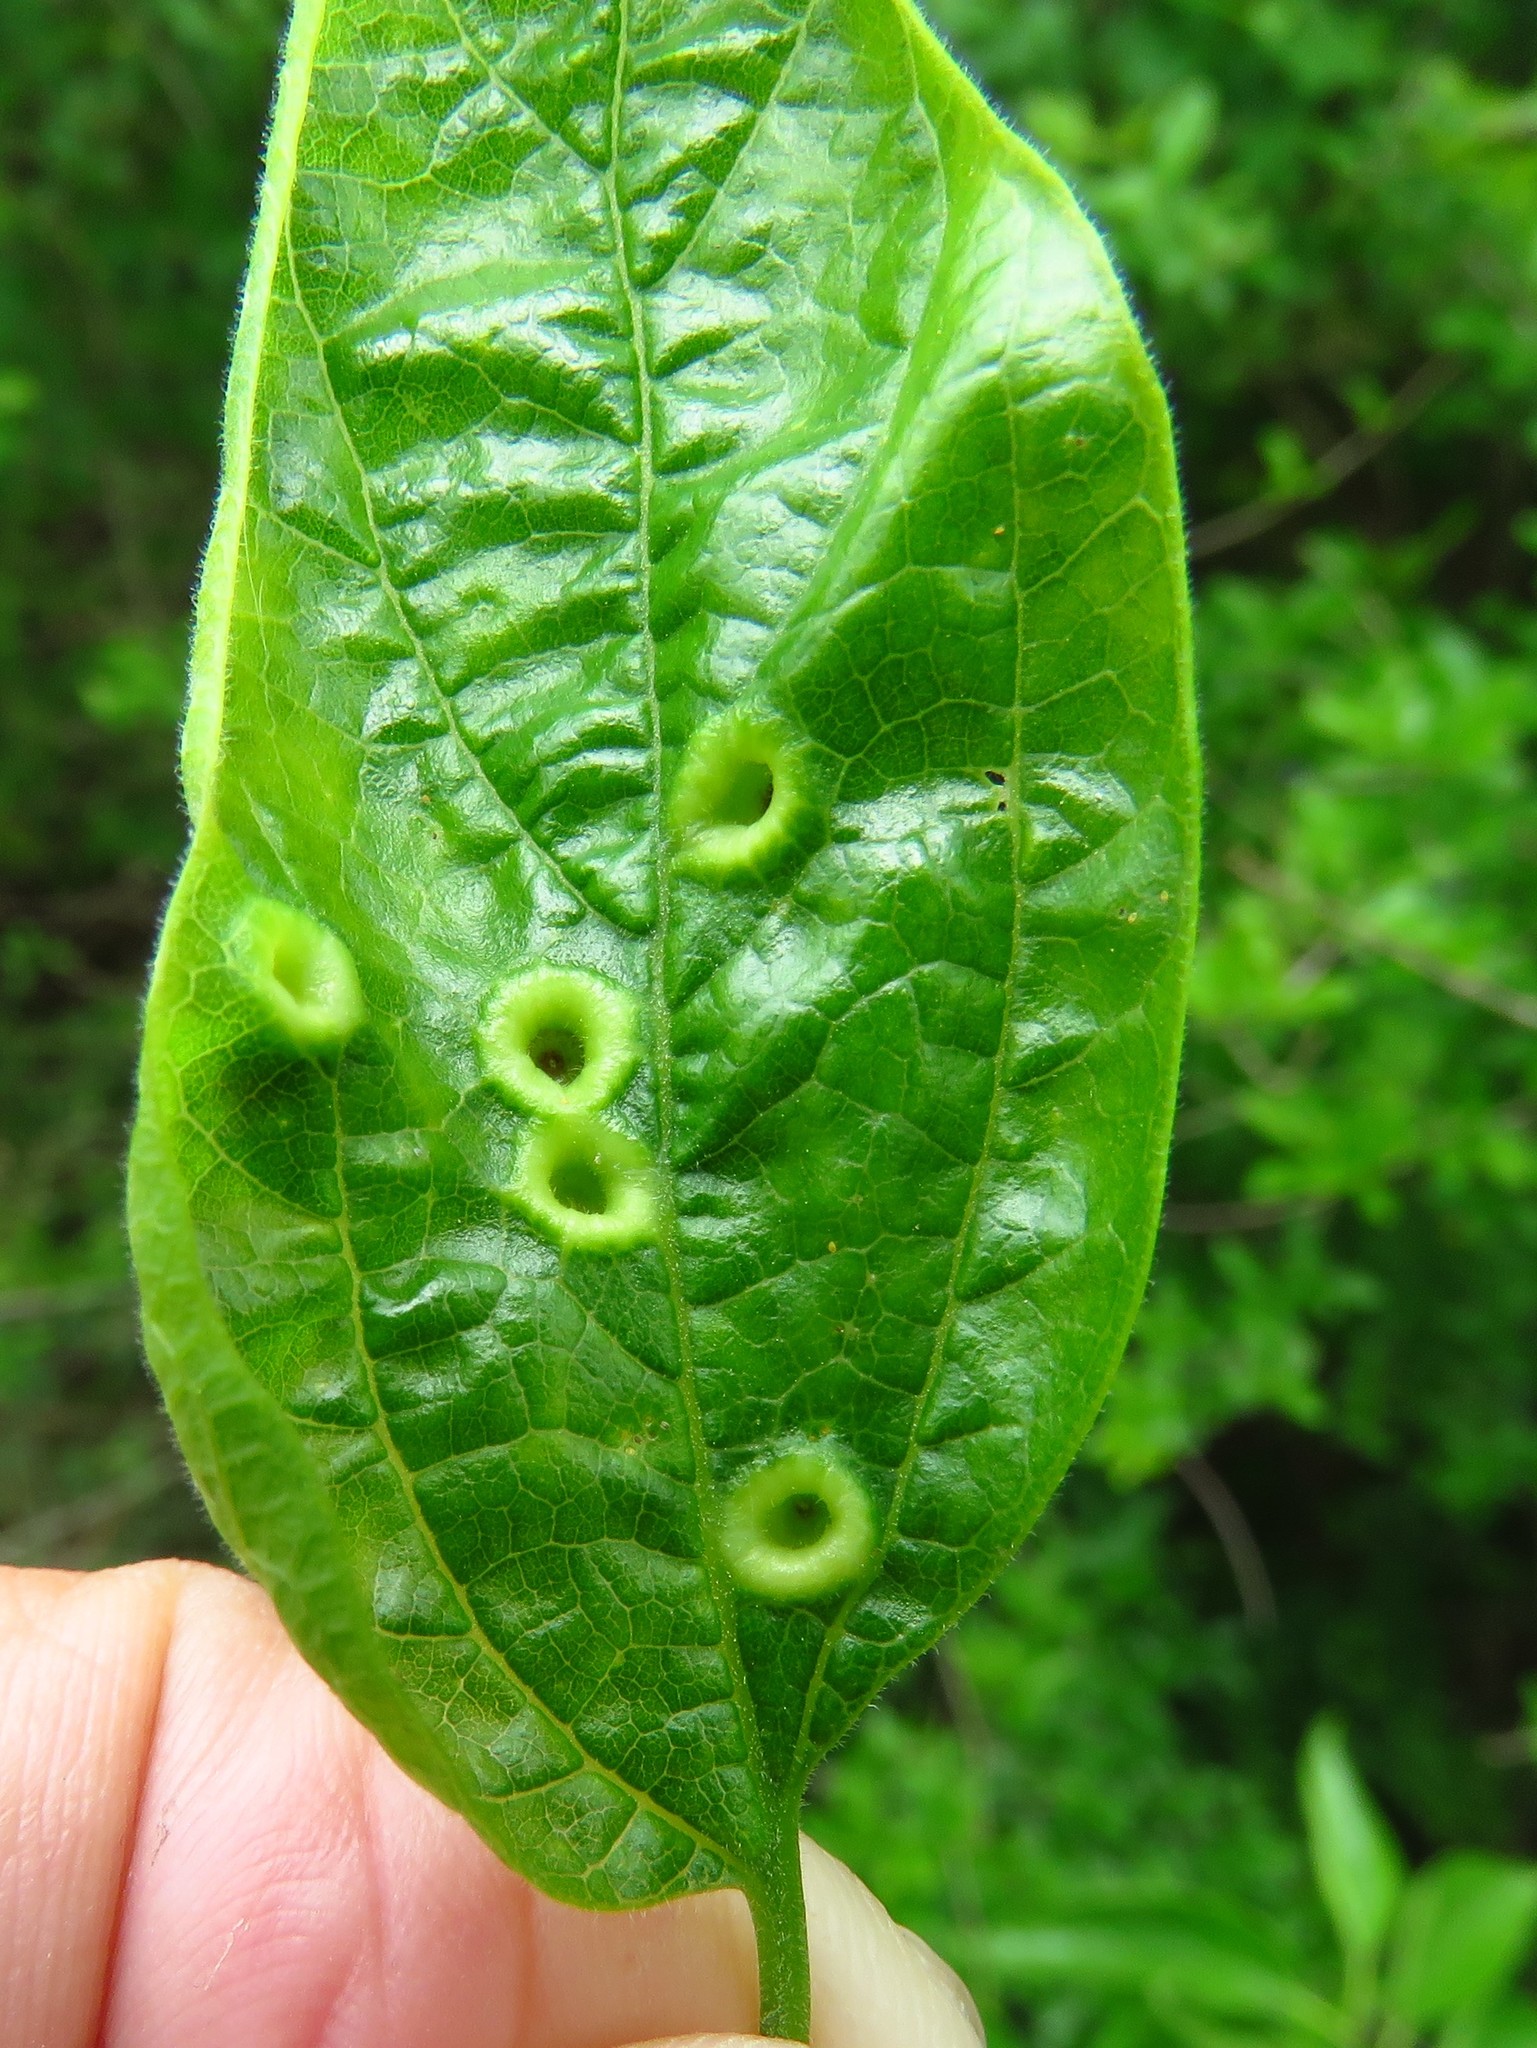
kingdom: Animalia
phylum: Arthropoda
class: Insecta
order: Hemiptera
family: Aphalaridae
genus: Pachypsylla
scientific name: Pachypsylla celtidismamma
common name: Hackberry nipplegall psyllid
